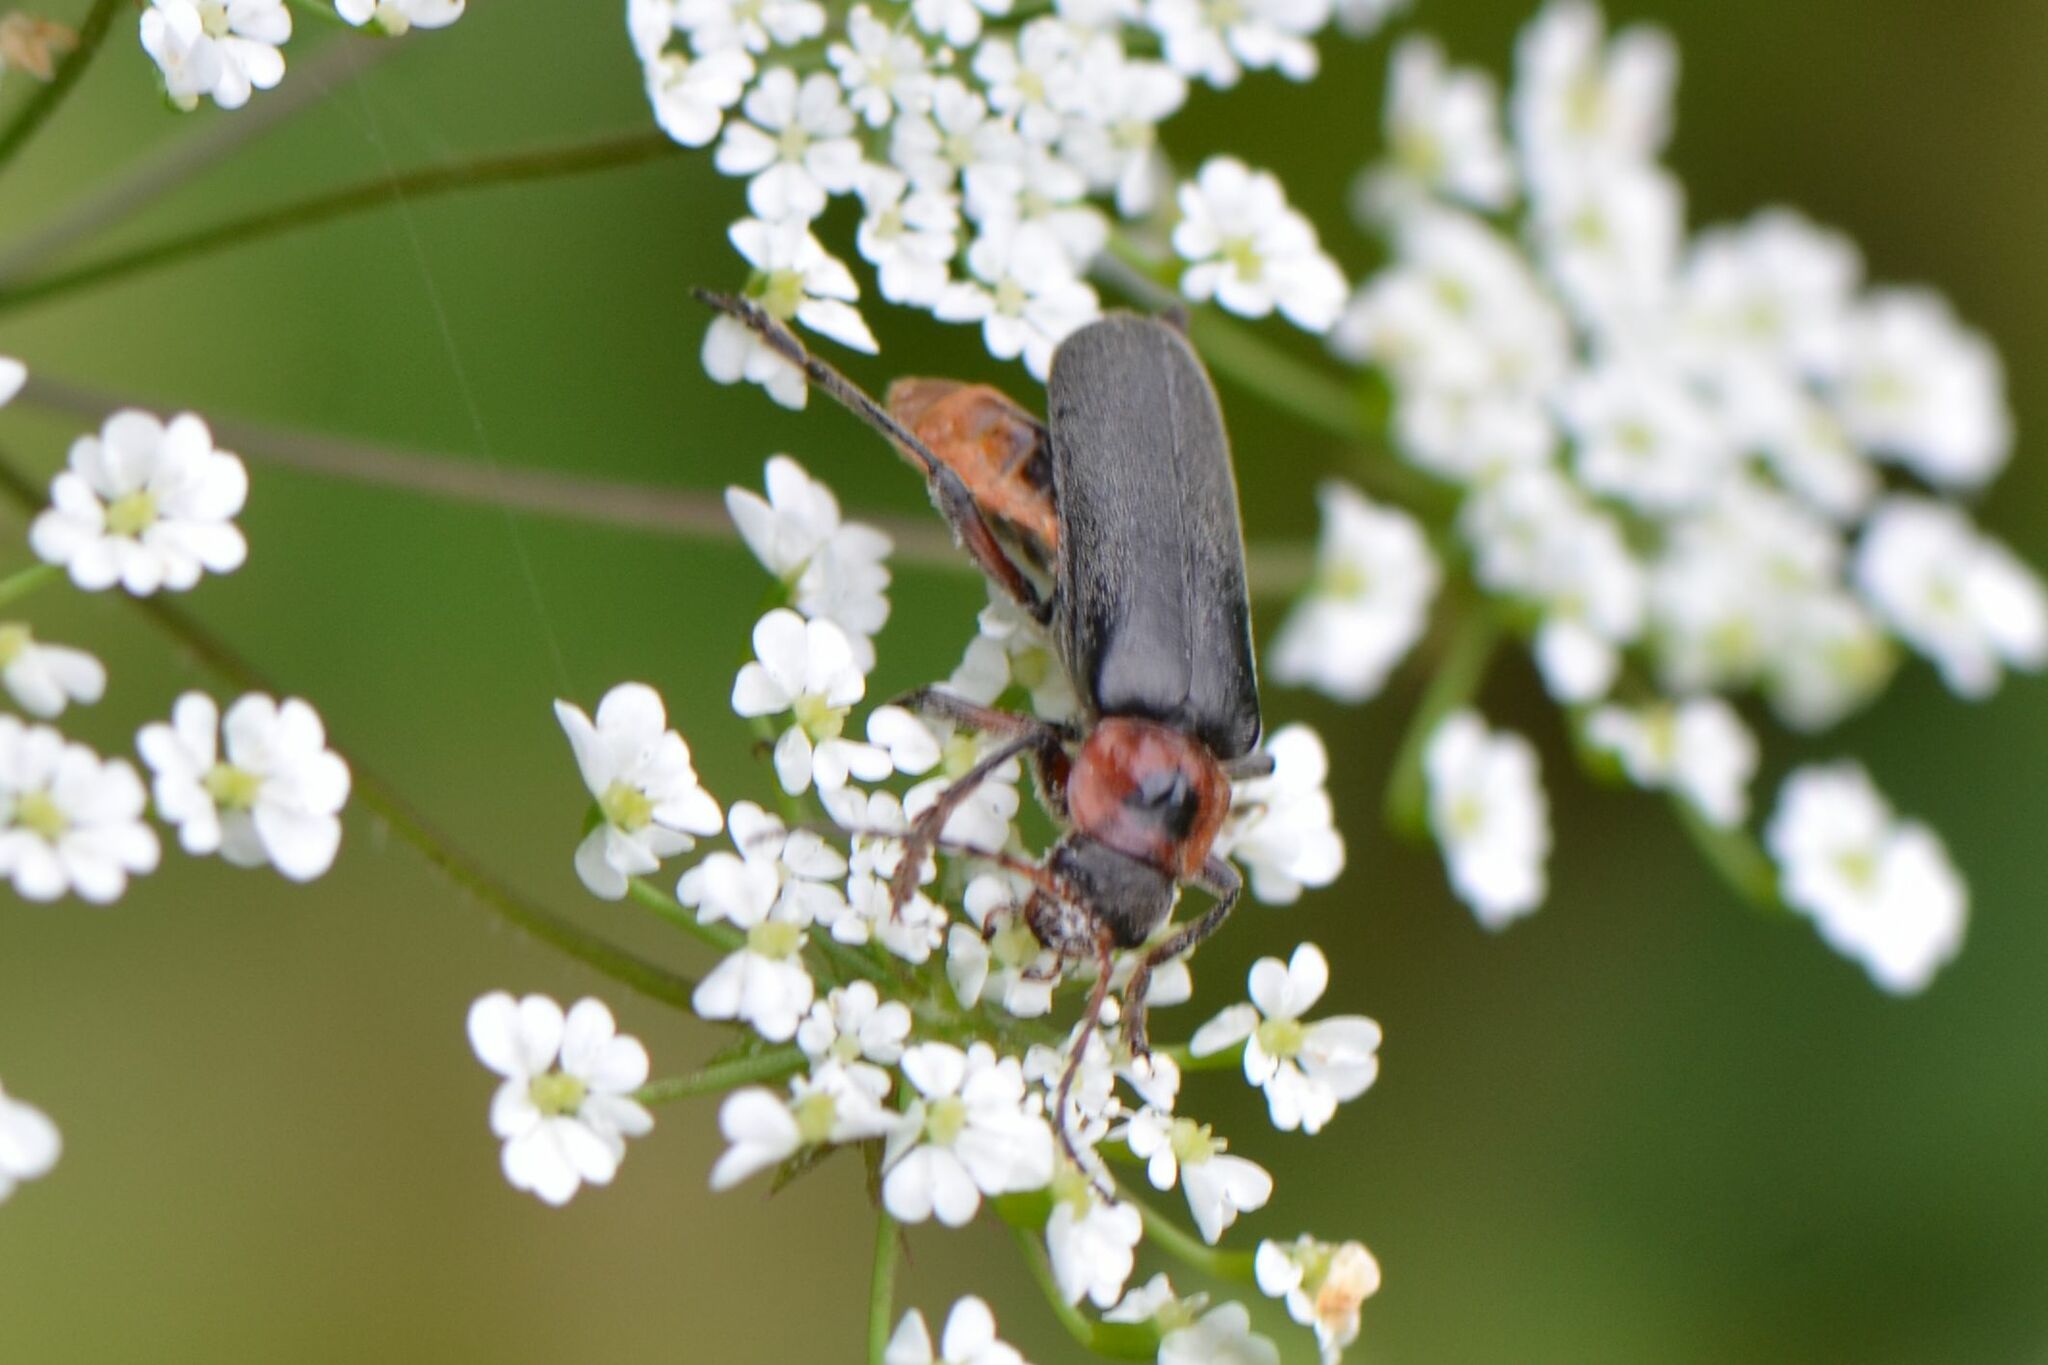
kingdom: Animalia
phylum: Arthropoda
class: Insecta
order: Coleoptera
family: Cantharidae
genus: Cantharis
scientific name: Cantharis rustica
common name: Soldier beetle
